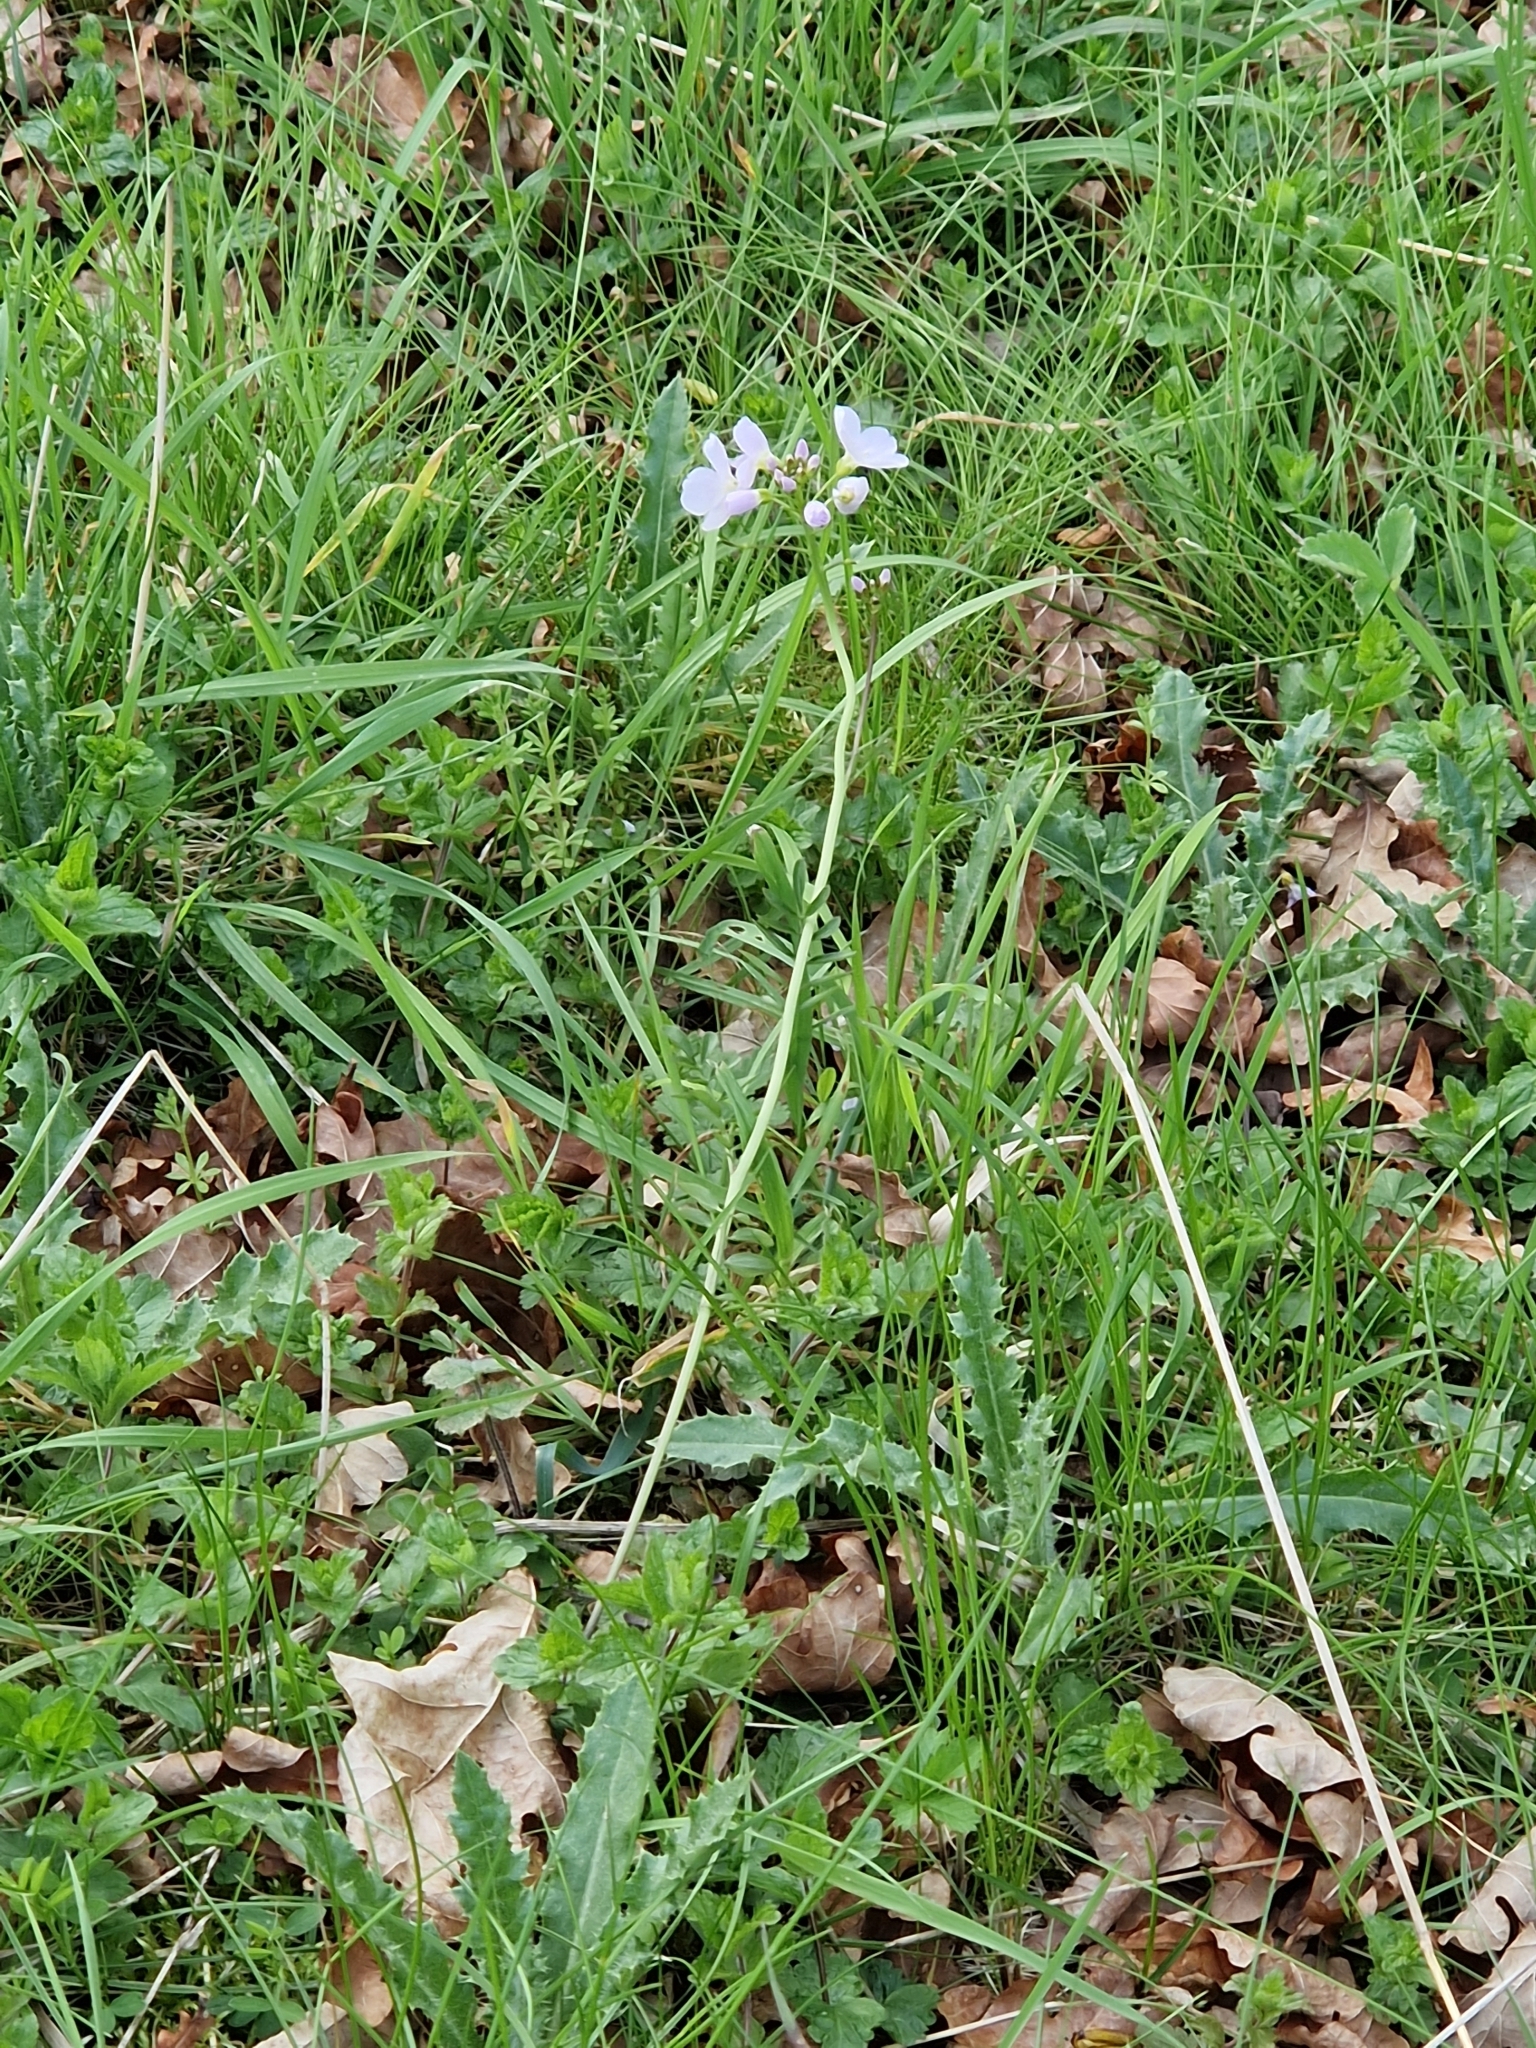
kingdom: Plantae
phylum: Tracheophyta
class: Magnoliopsida
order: Brassicales
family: Brassicaceae
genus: Cardamine
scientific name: Cardamine pratensis
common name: Cuckoo flower
